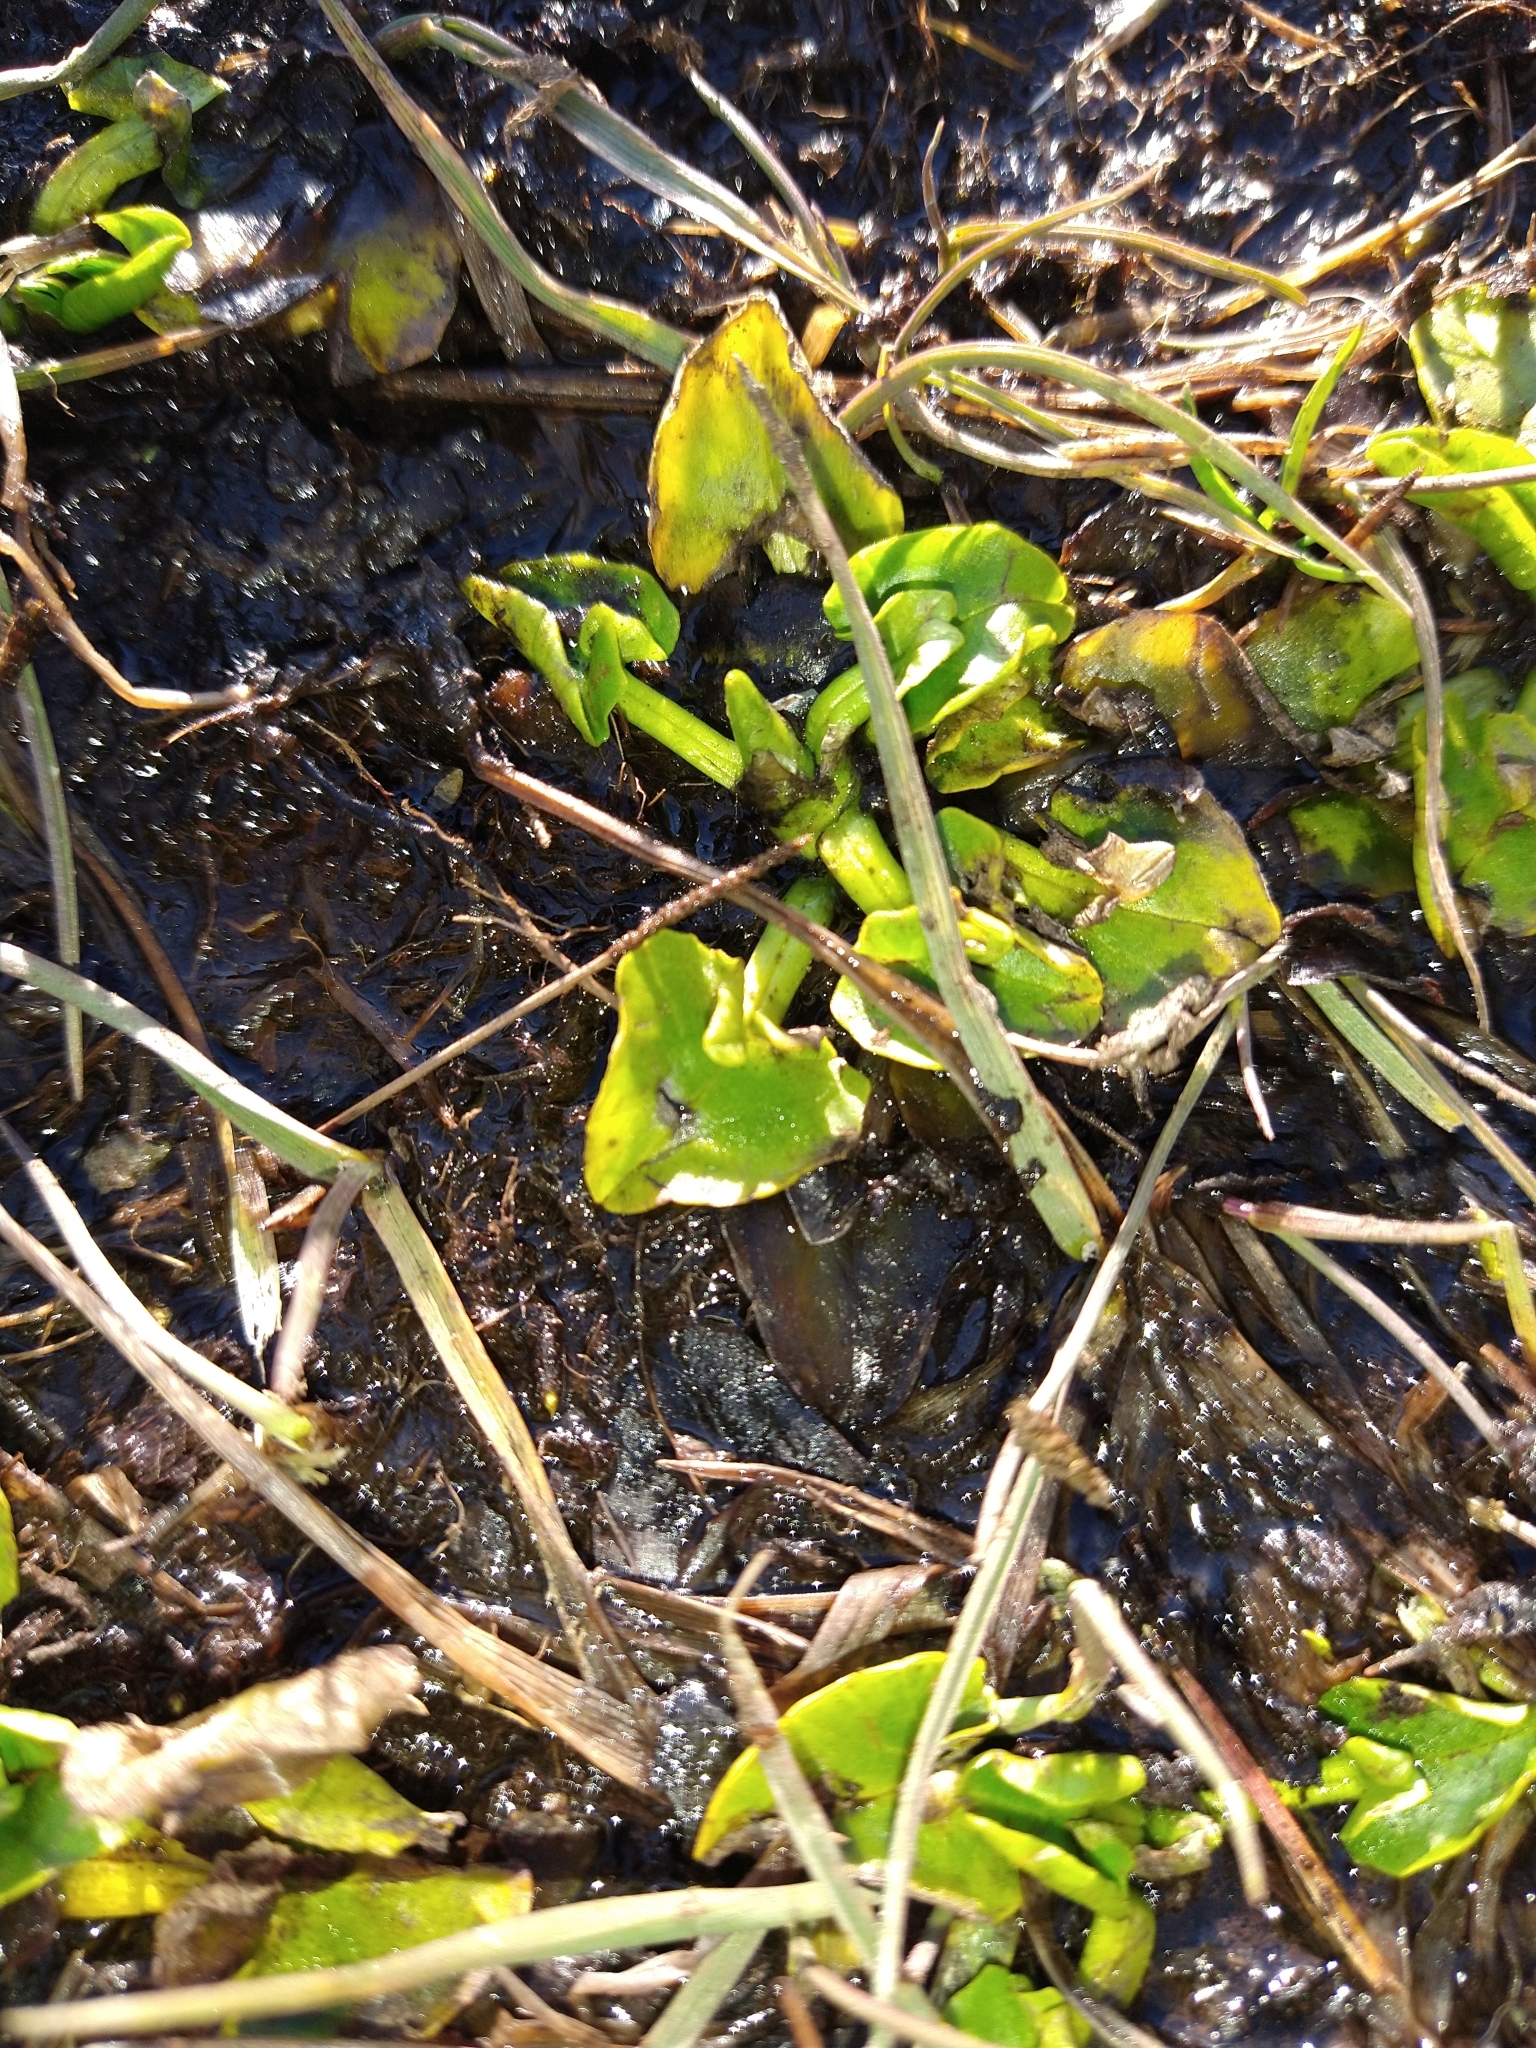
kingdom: Plantae
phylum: Tracheophyta
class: Magnoliopsida
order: Ranunculales
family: Ranunculaceae
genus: Caltha
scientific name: Caltha sagittata
